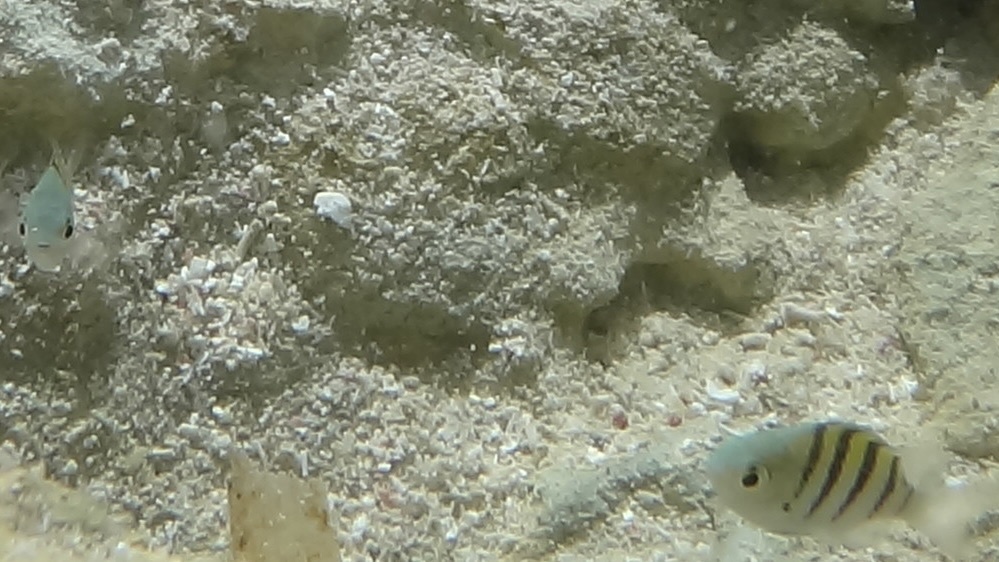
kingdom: Animalia
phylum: Chordata
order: Perciformes
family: Pomacentridae
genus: Abudefduf
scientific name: Abudefduf saxatilis
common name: Sergeant major
